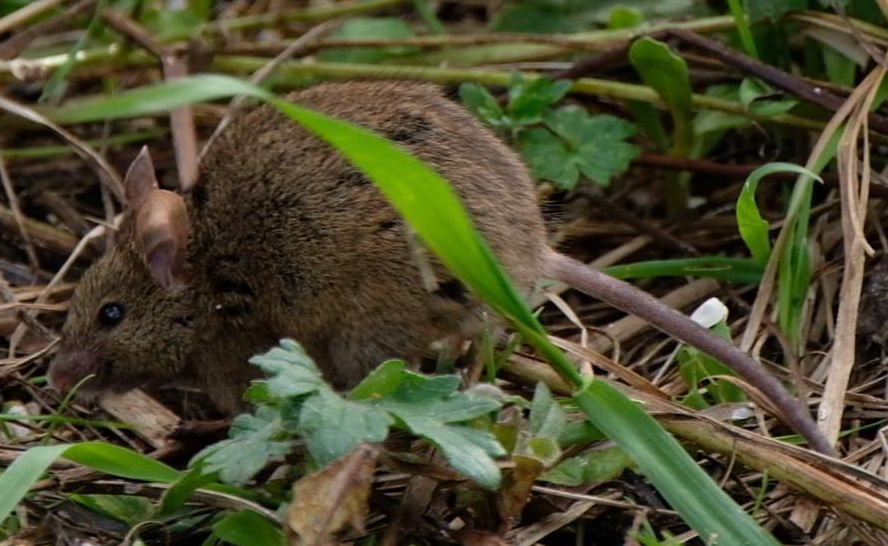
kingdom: Animalia
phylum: Chordata
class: Mammalia
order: Rodentia
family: Muridae
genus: Mus
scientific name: Mus musculus
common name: House mouse
